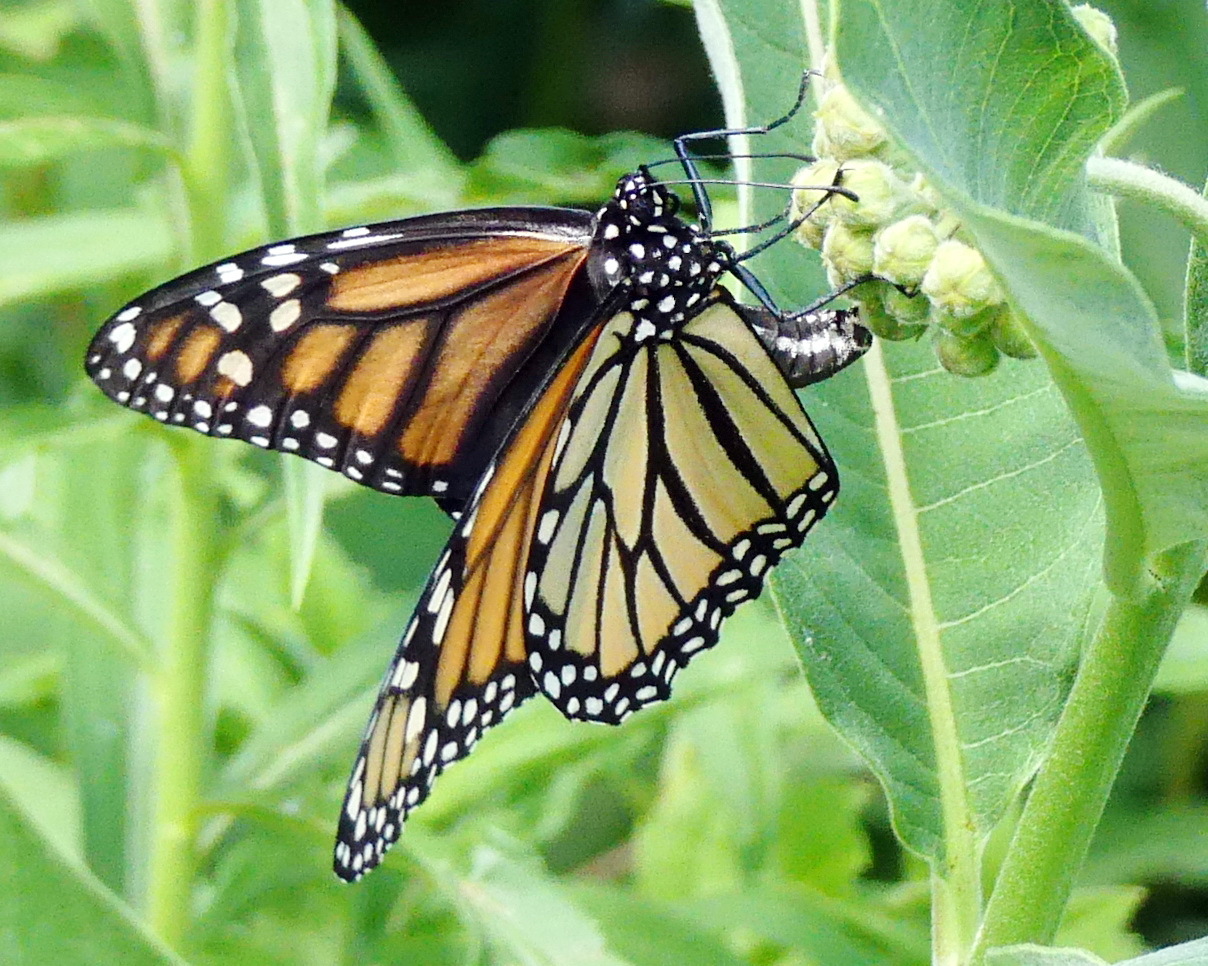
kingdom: Animalia
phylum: Arthropoda
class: Insecta
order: Lepidoptera
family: Nymphalidae
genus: Danaus
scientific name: Danaus plexippus
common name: Monarch
